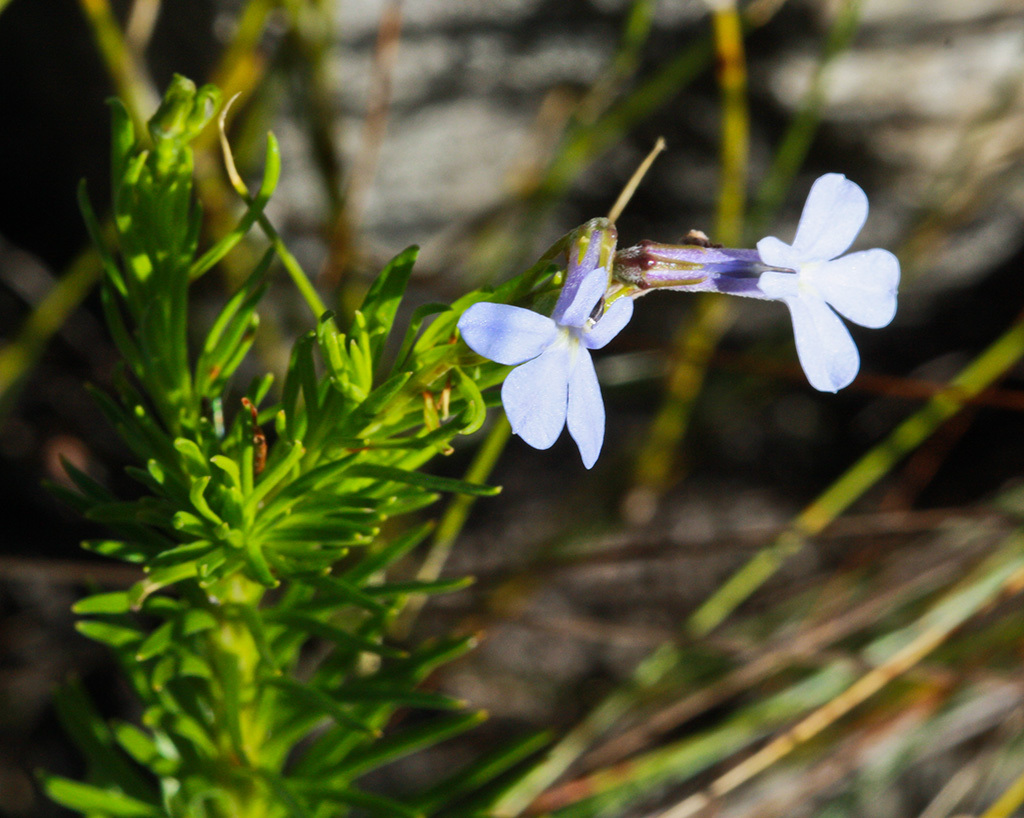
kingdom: Plantae
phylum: Tracheophyta
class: Magnoliopsida
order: Asterales
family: Campanulaceae
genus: Lobelia
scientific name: Lobelia pinifolia
